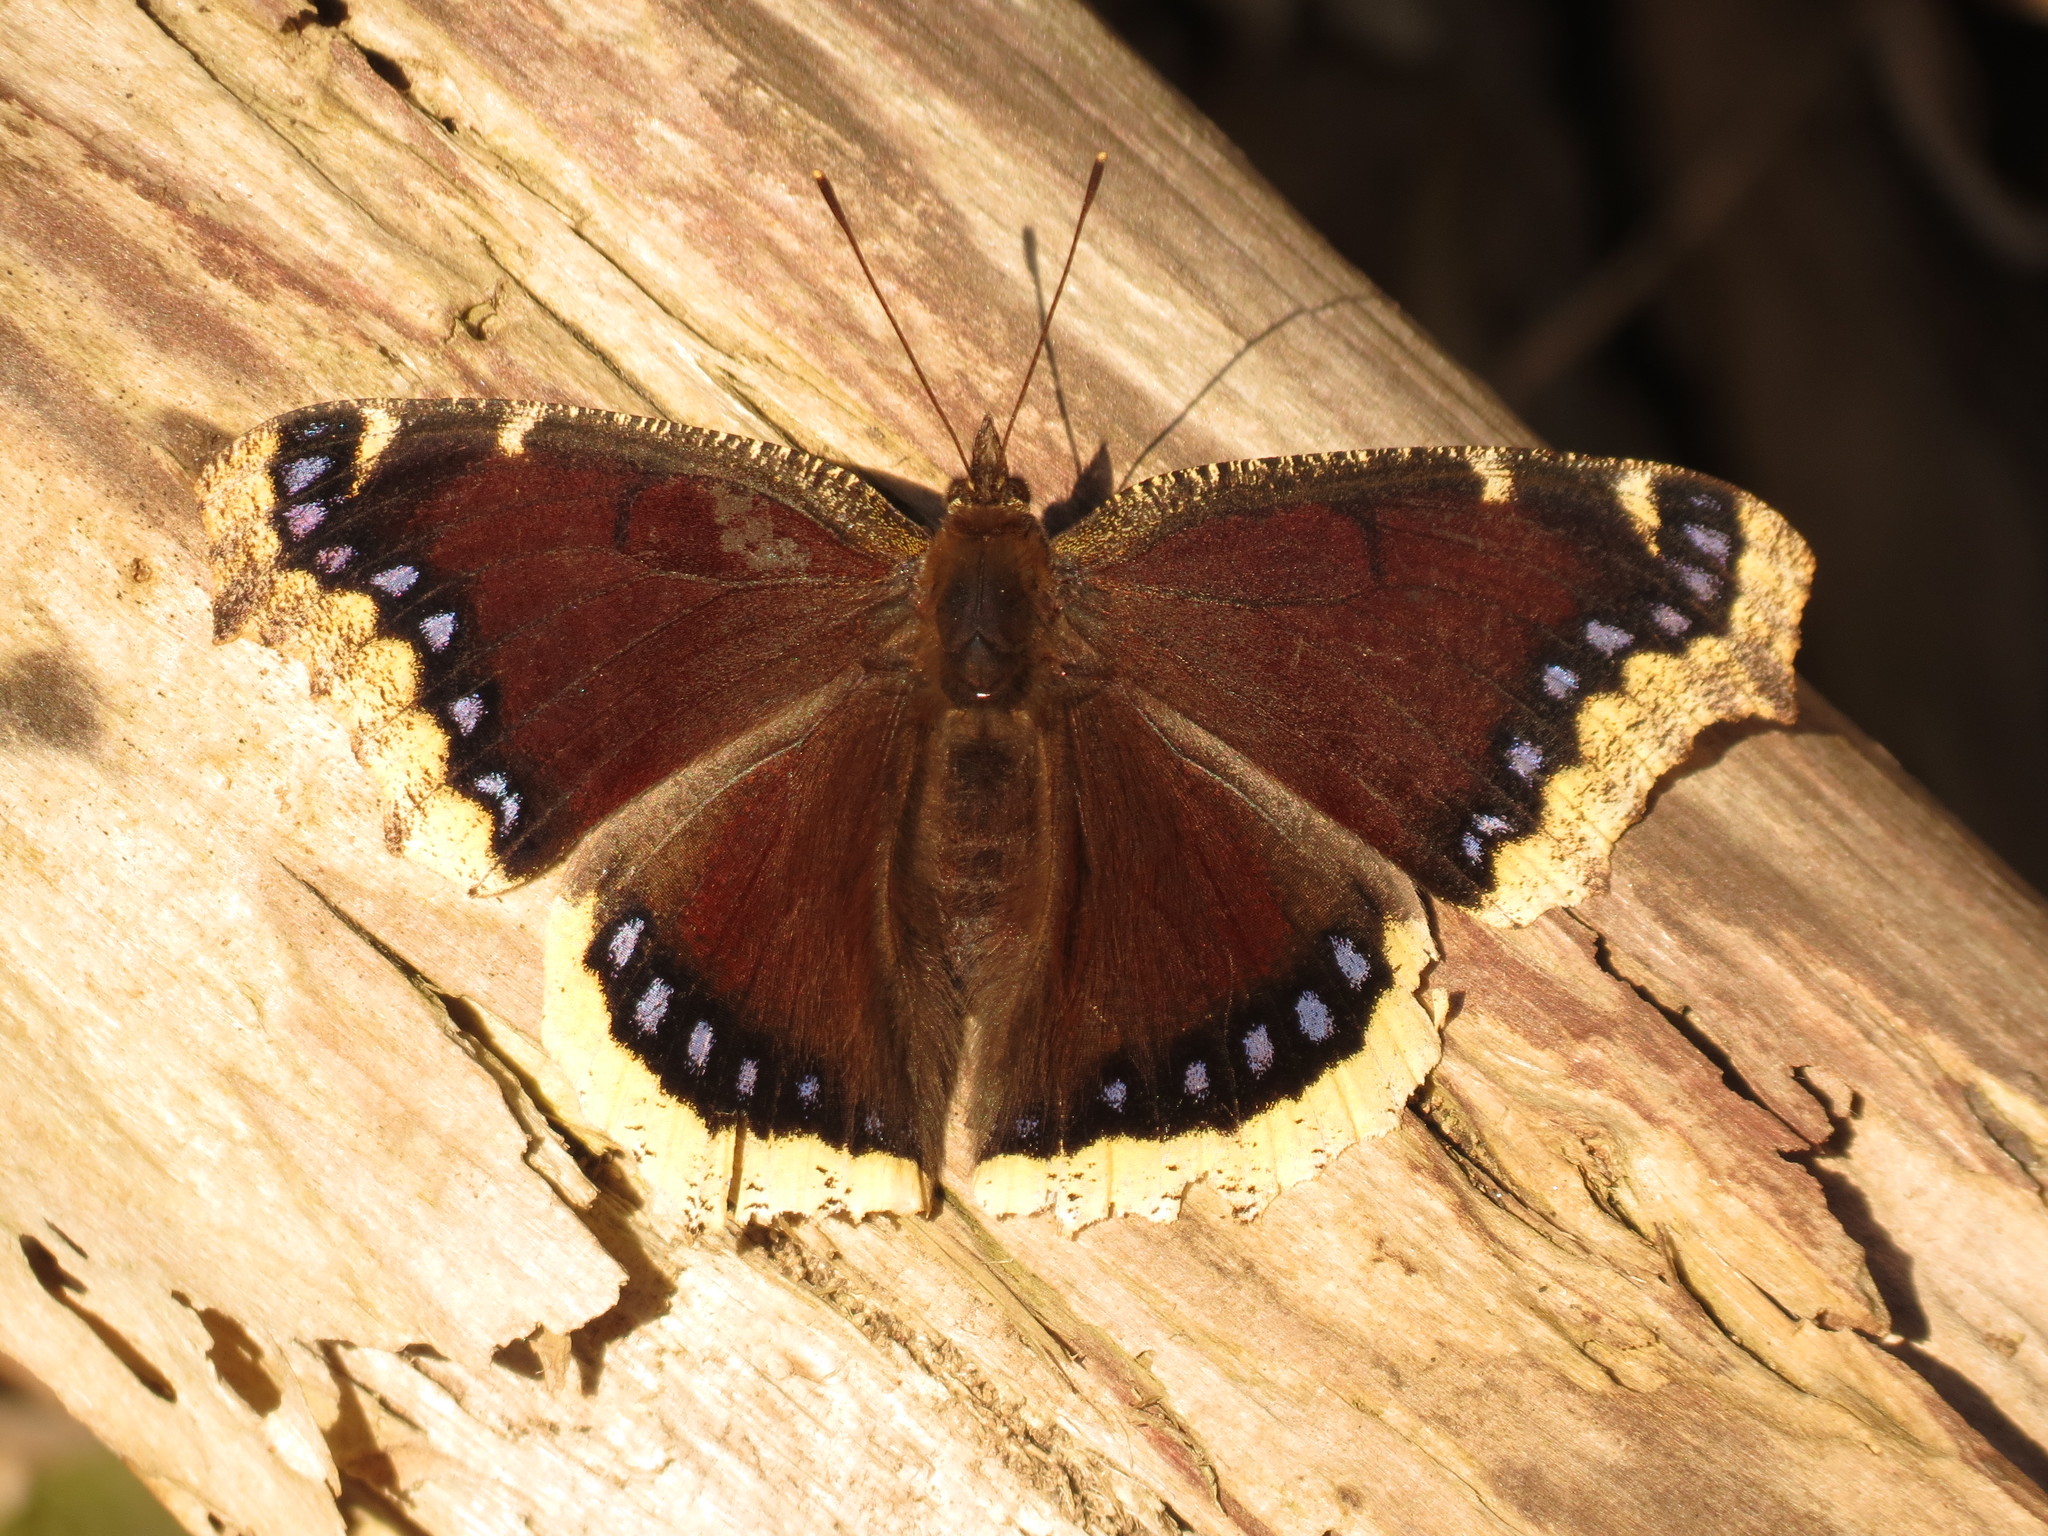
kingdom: Animalia
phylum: Arthropoda
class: Insecta
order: Lepidoptera
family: Nymphalidae
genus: Nymphalis
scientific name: Nymphalis antiopa
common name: Camberwell beauty
